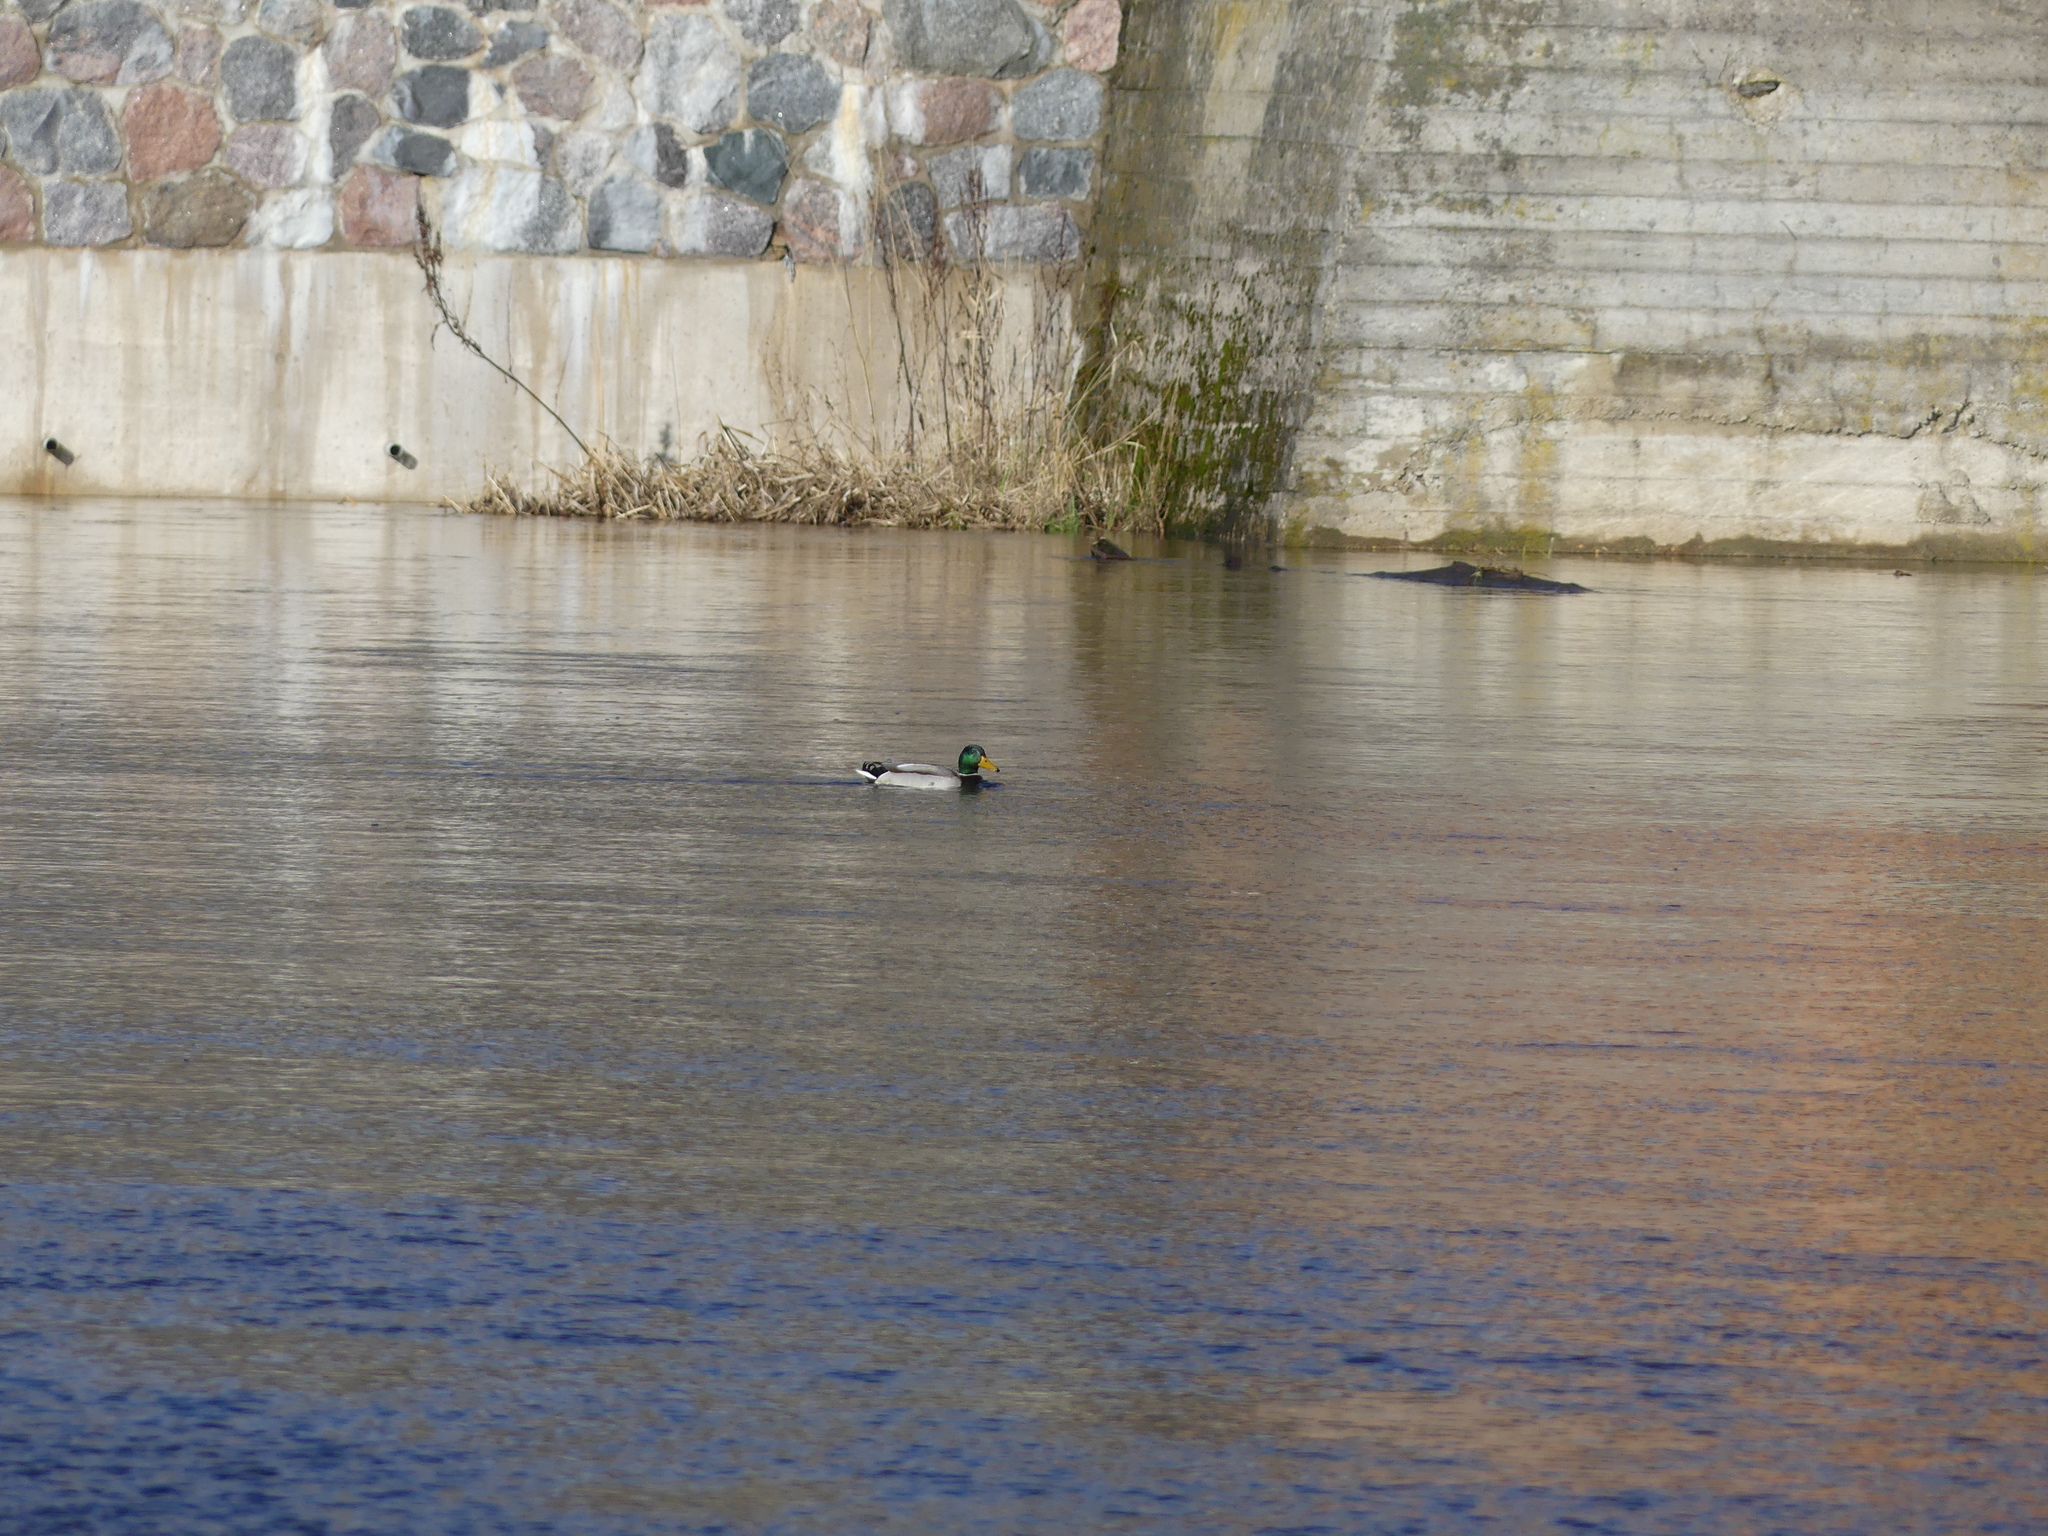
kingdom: Animalia
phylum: Chordata
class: Aves
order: Anseriformes
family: Anatidae
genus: Anas
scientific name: Anas platyrhynchos
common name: Mallard
